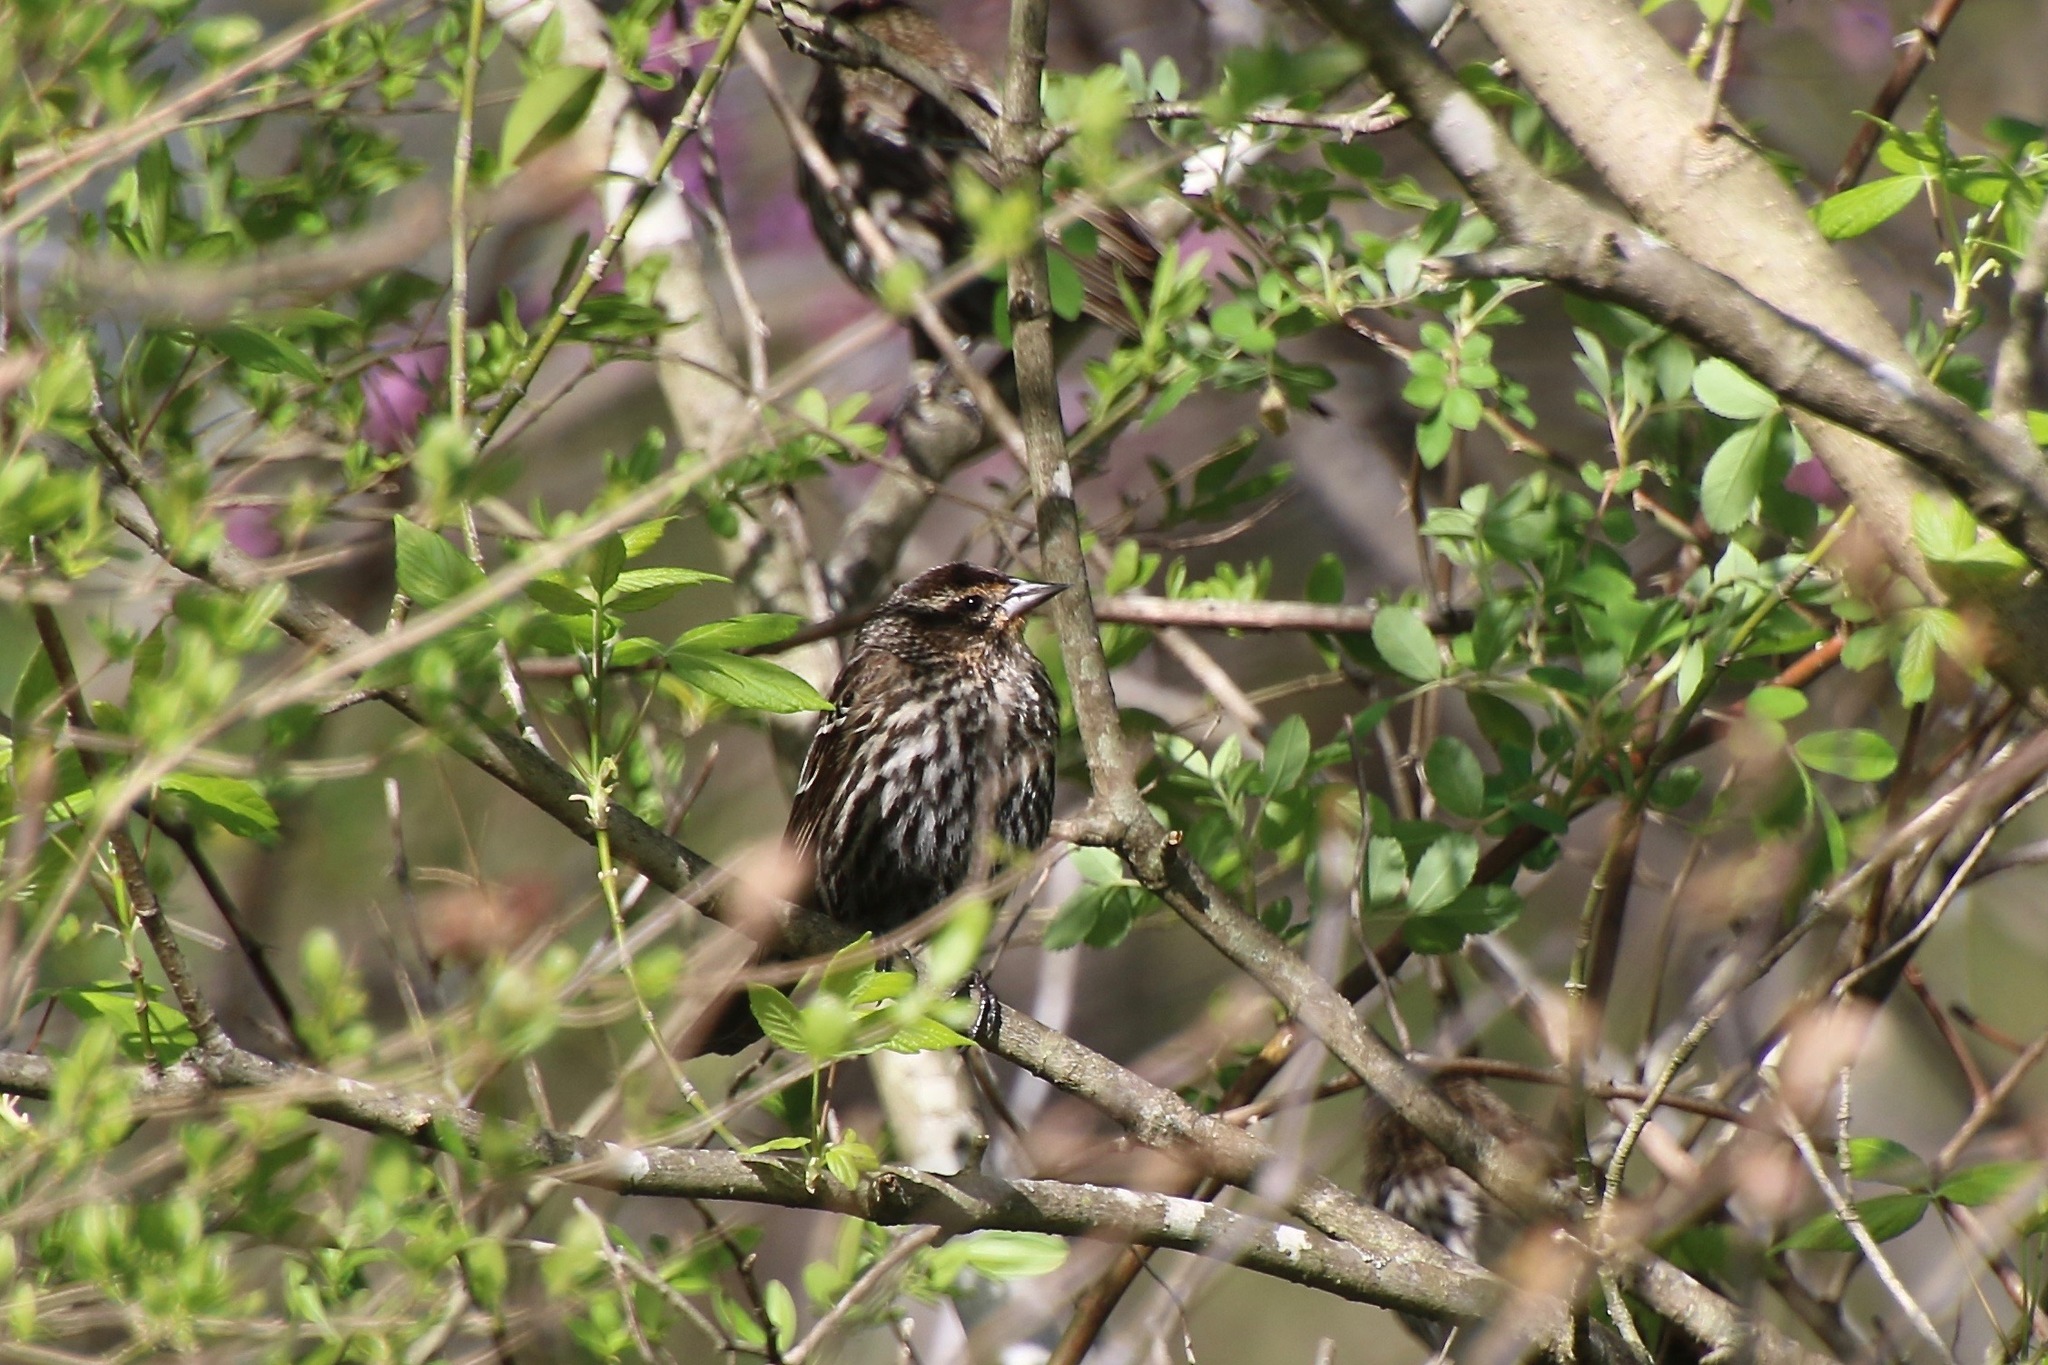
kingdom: Animalia
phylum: Chordata
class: Aves
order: Passeriformes
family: Icteridae
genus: Agelaius
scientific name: Agelaius phoeniceus
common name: Red-winged blackbird
